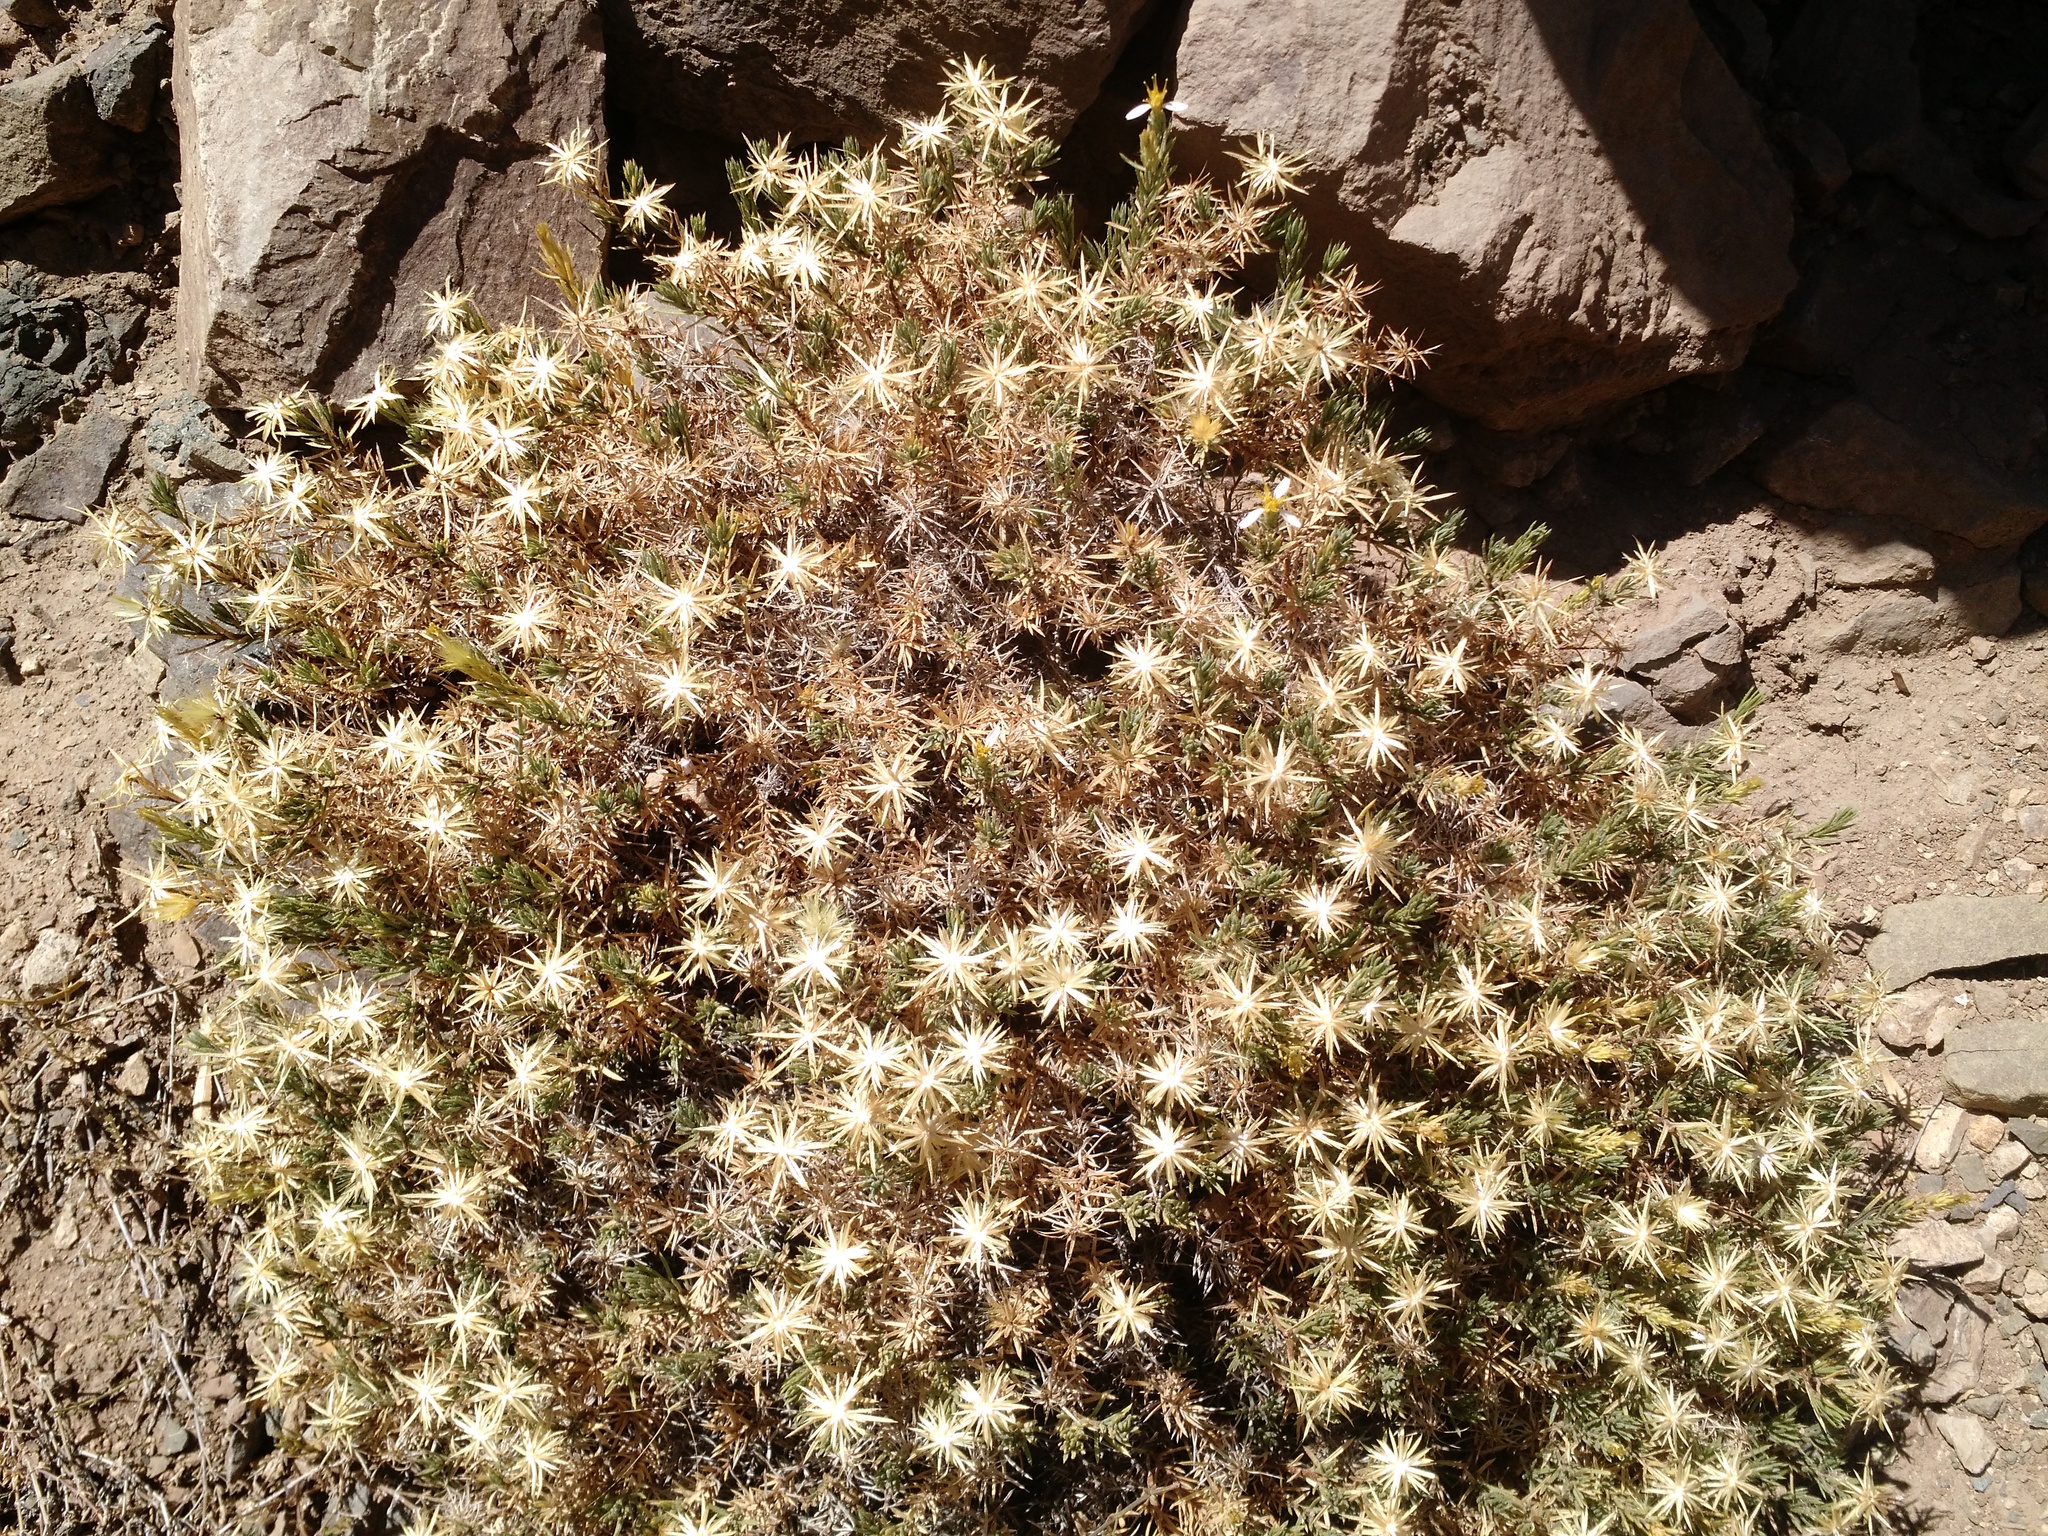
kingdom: Plantae
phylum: Tracheophyta
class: Magnoliopsida
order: Asterales
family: Asteraceae
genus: Chaetanthera
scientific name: Chaetanthera glandulosa
